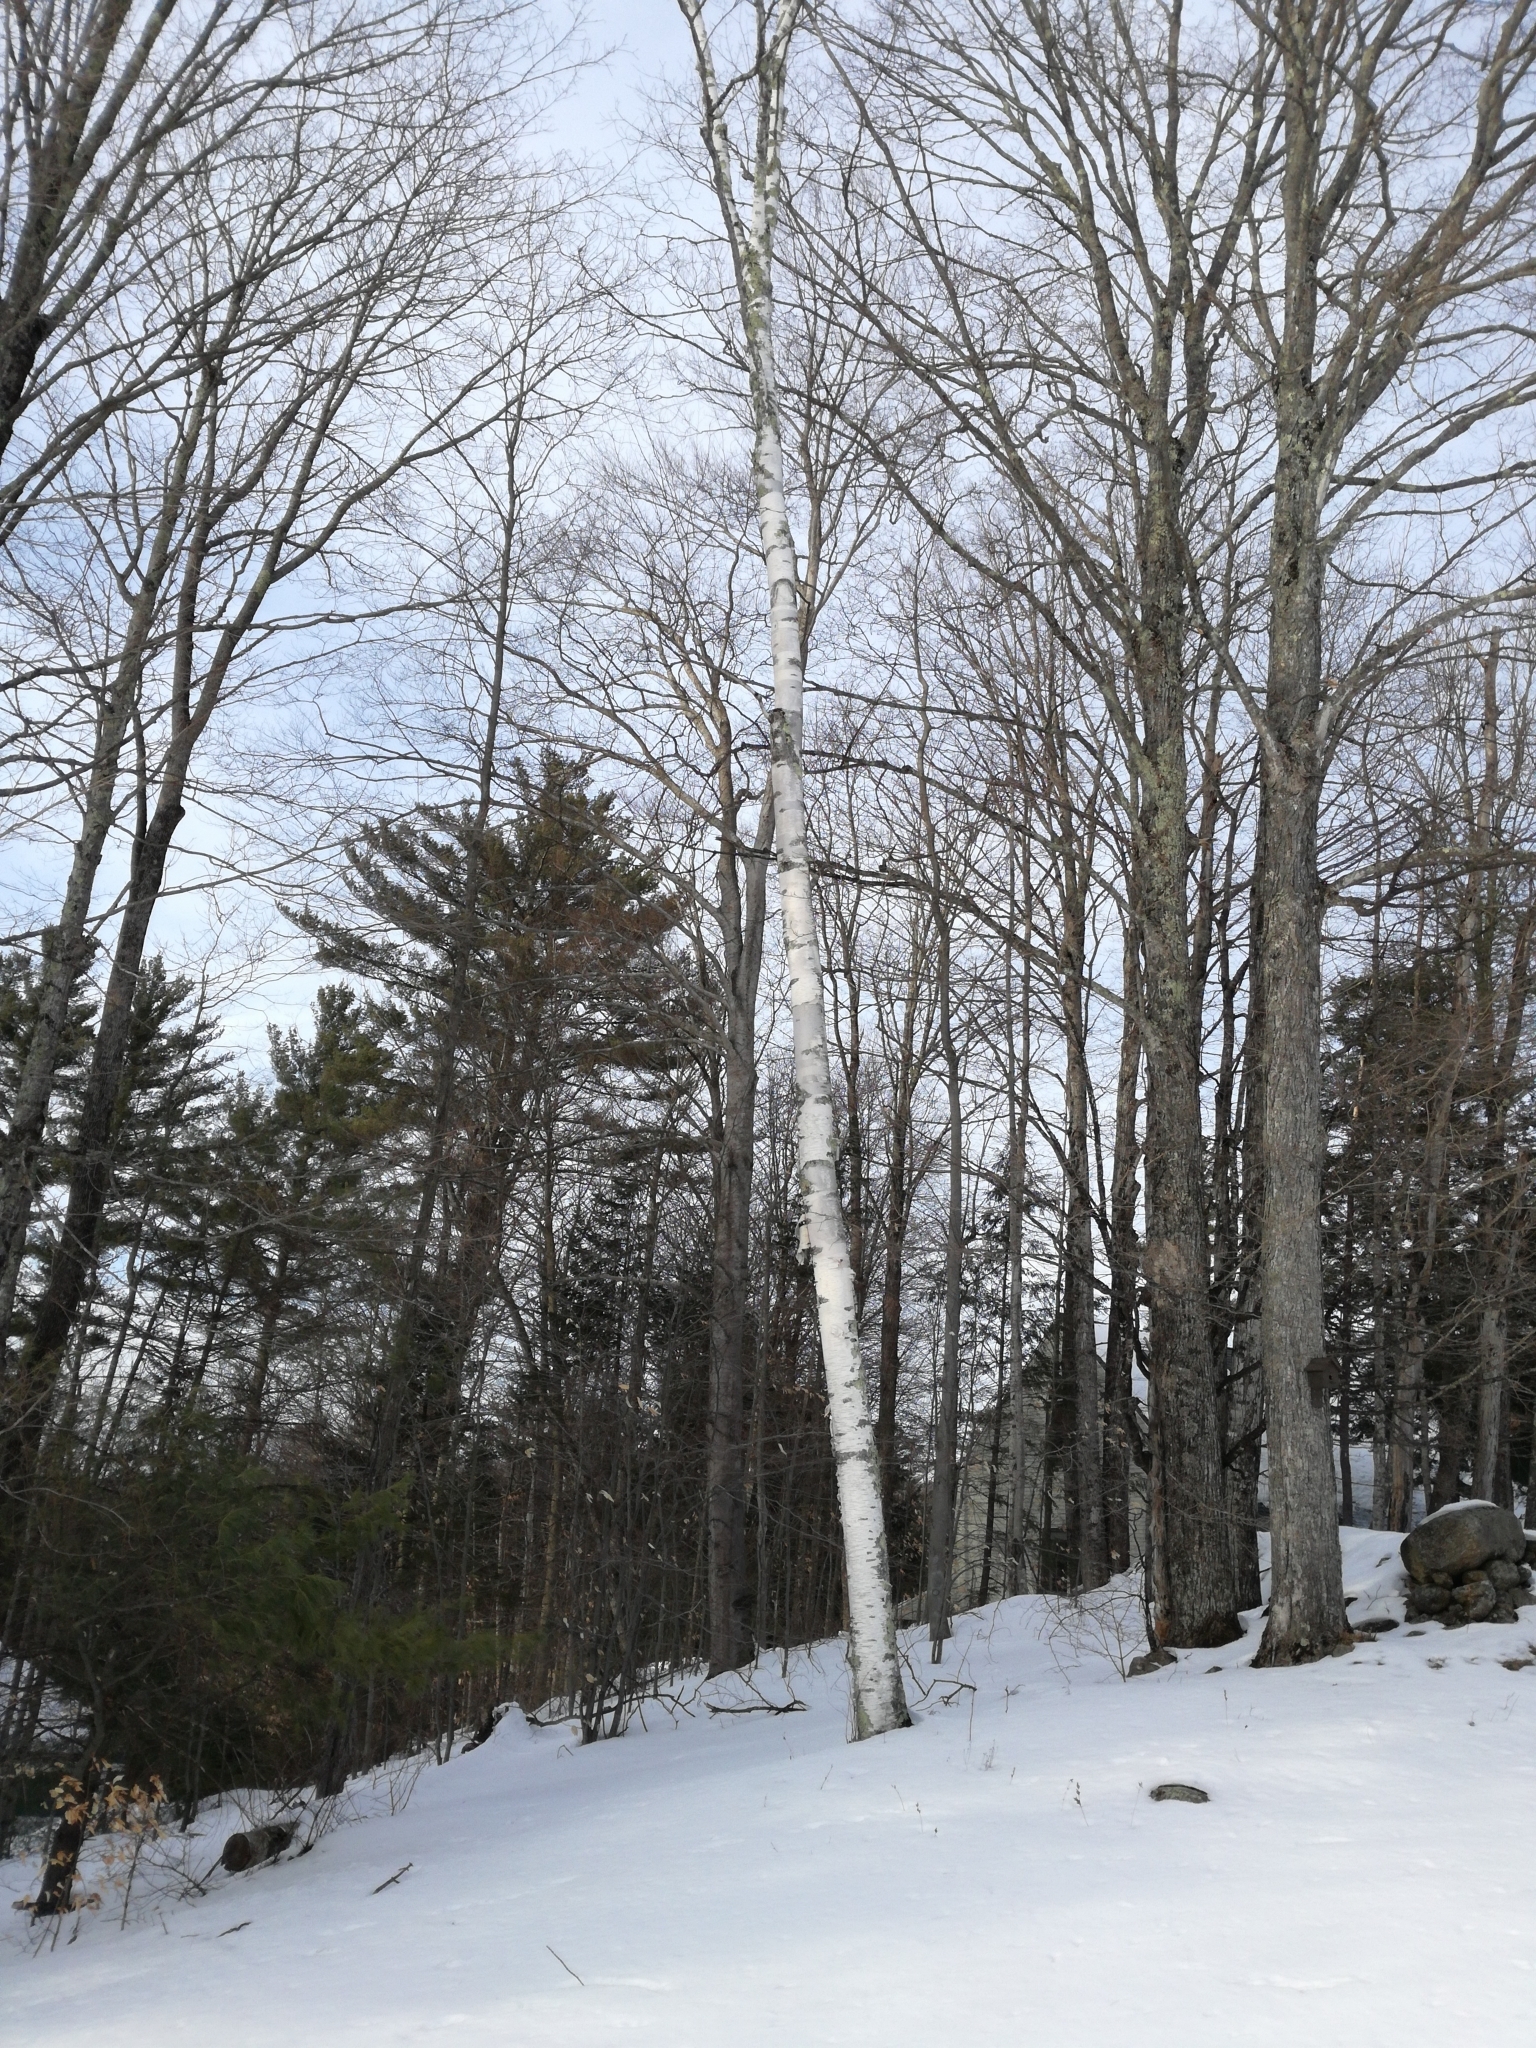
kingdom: Plantae
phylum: Tracheophyta
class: Magnoliopsida
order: Fagales
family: Betulaceae
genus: Betula
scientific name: Betula papyrifera
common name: Paper birch
